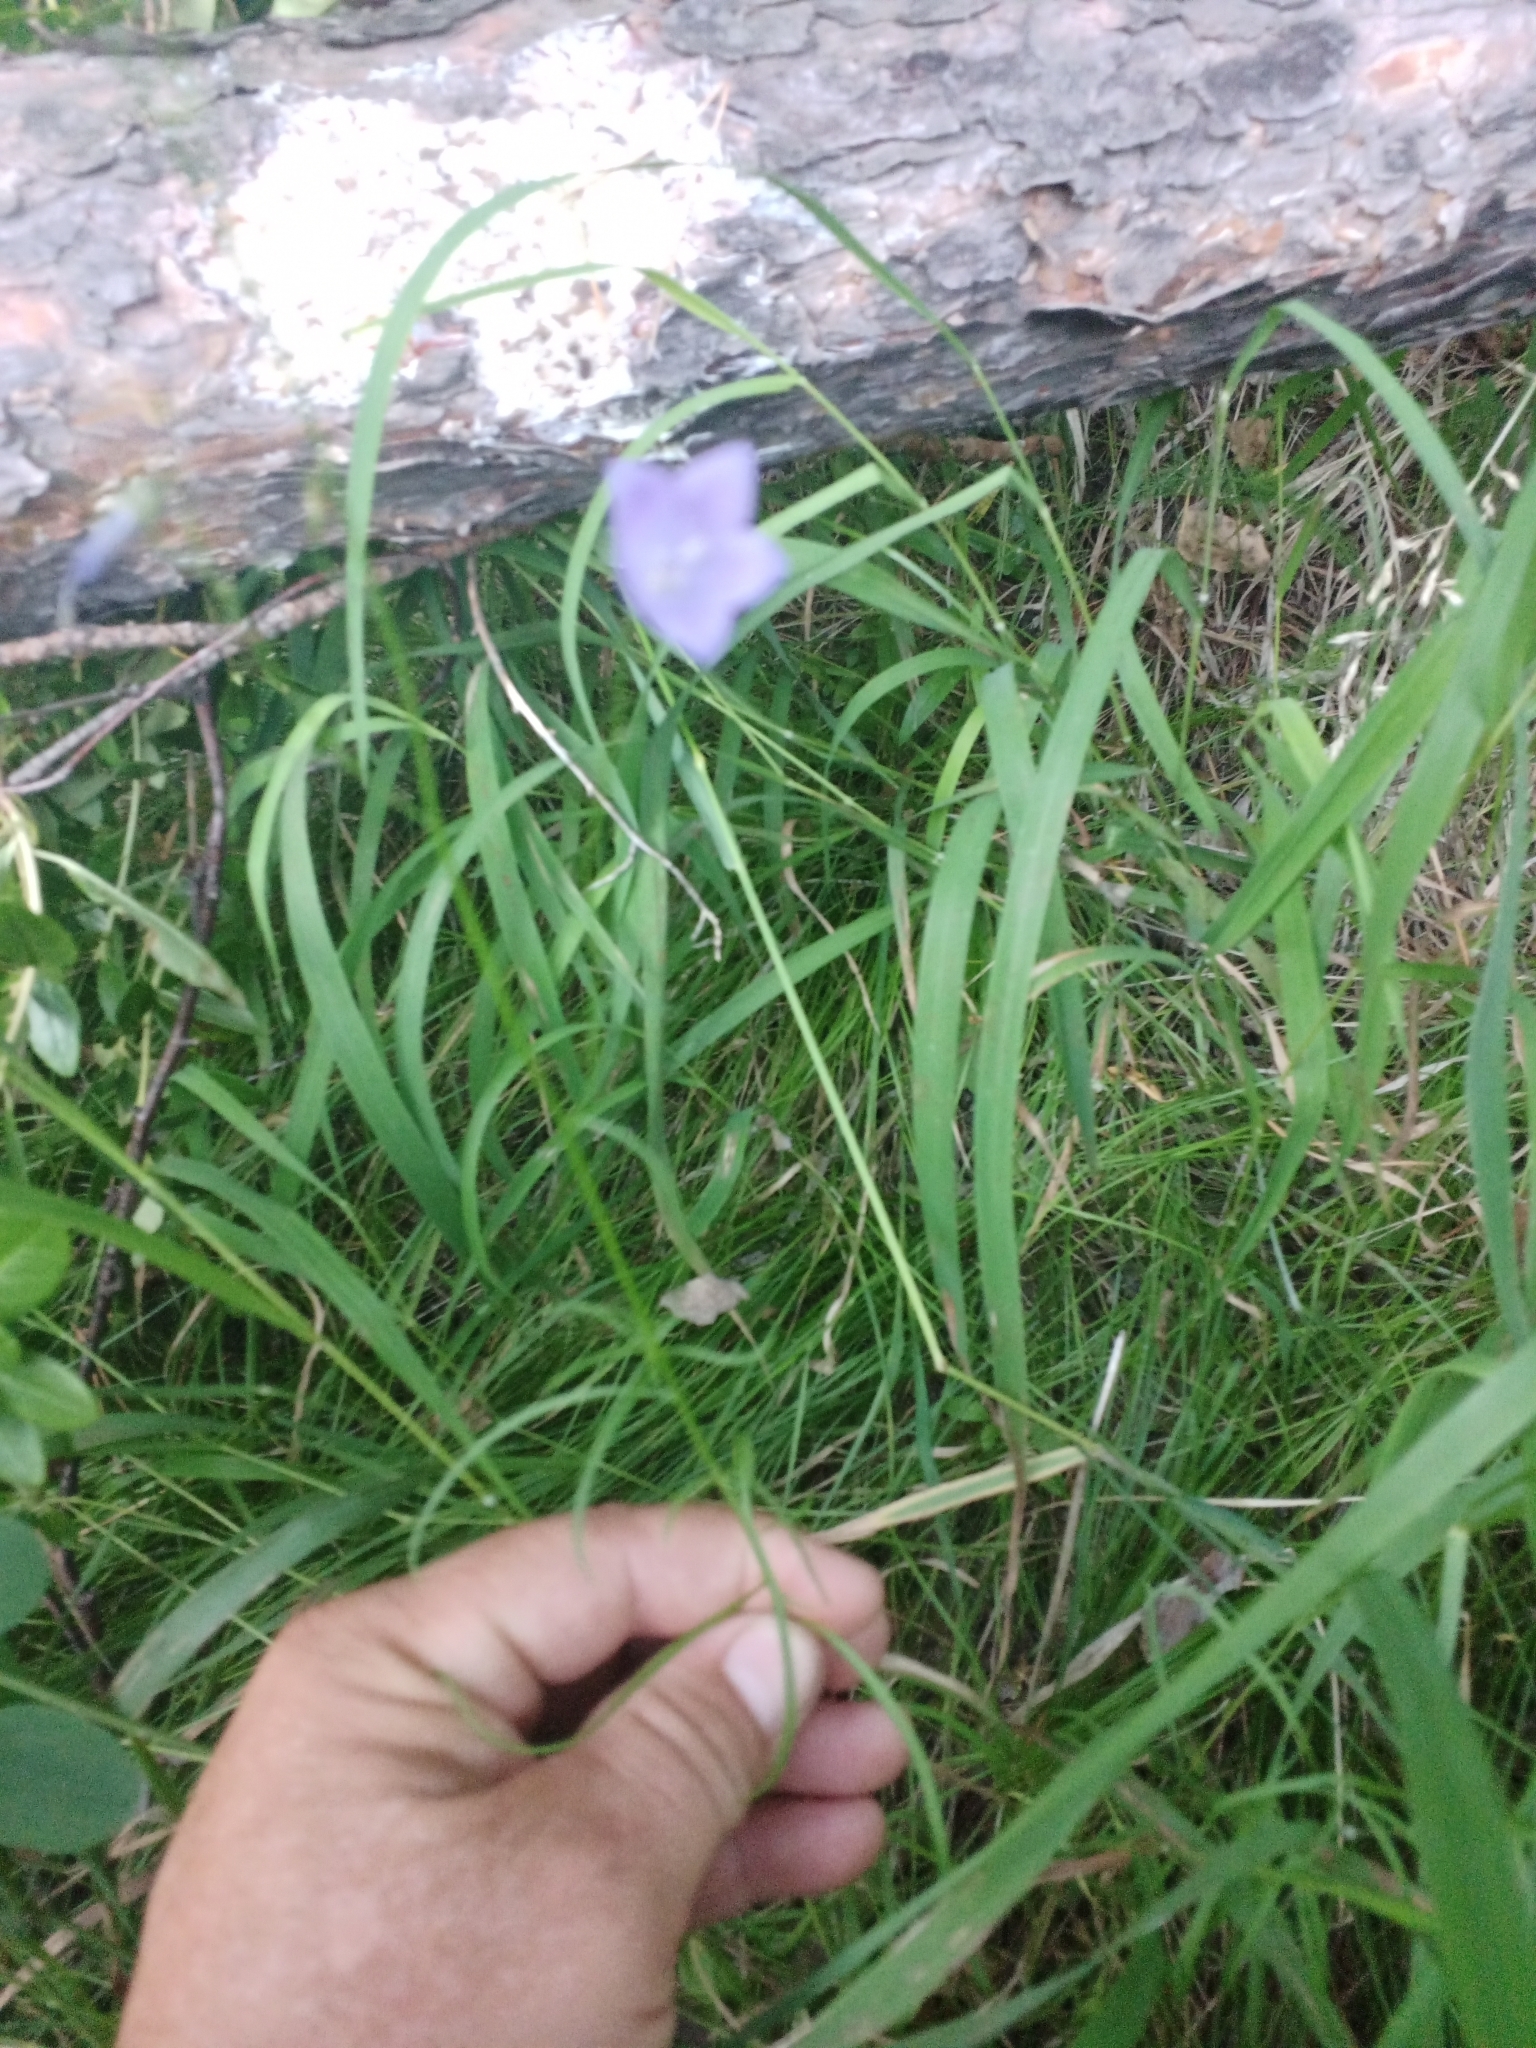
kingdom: Plantae
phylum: Tracheophyta
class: Magnoliopsida
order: Asterales
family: Campanulaceae
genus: Campanula
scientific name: Campanula rotundifolia
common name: Harebell
